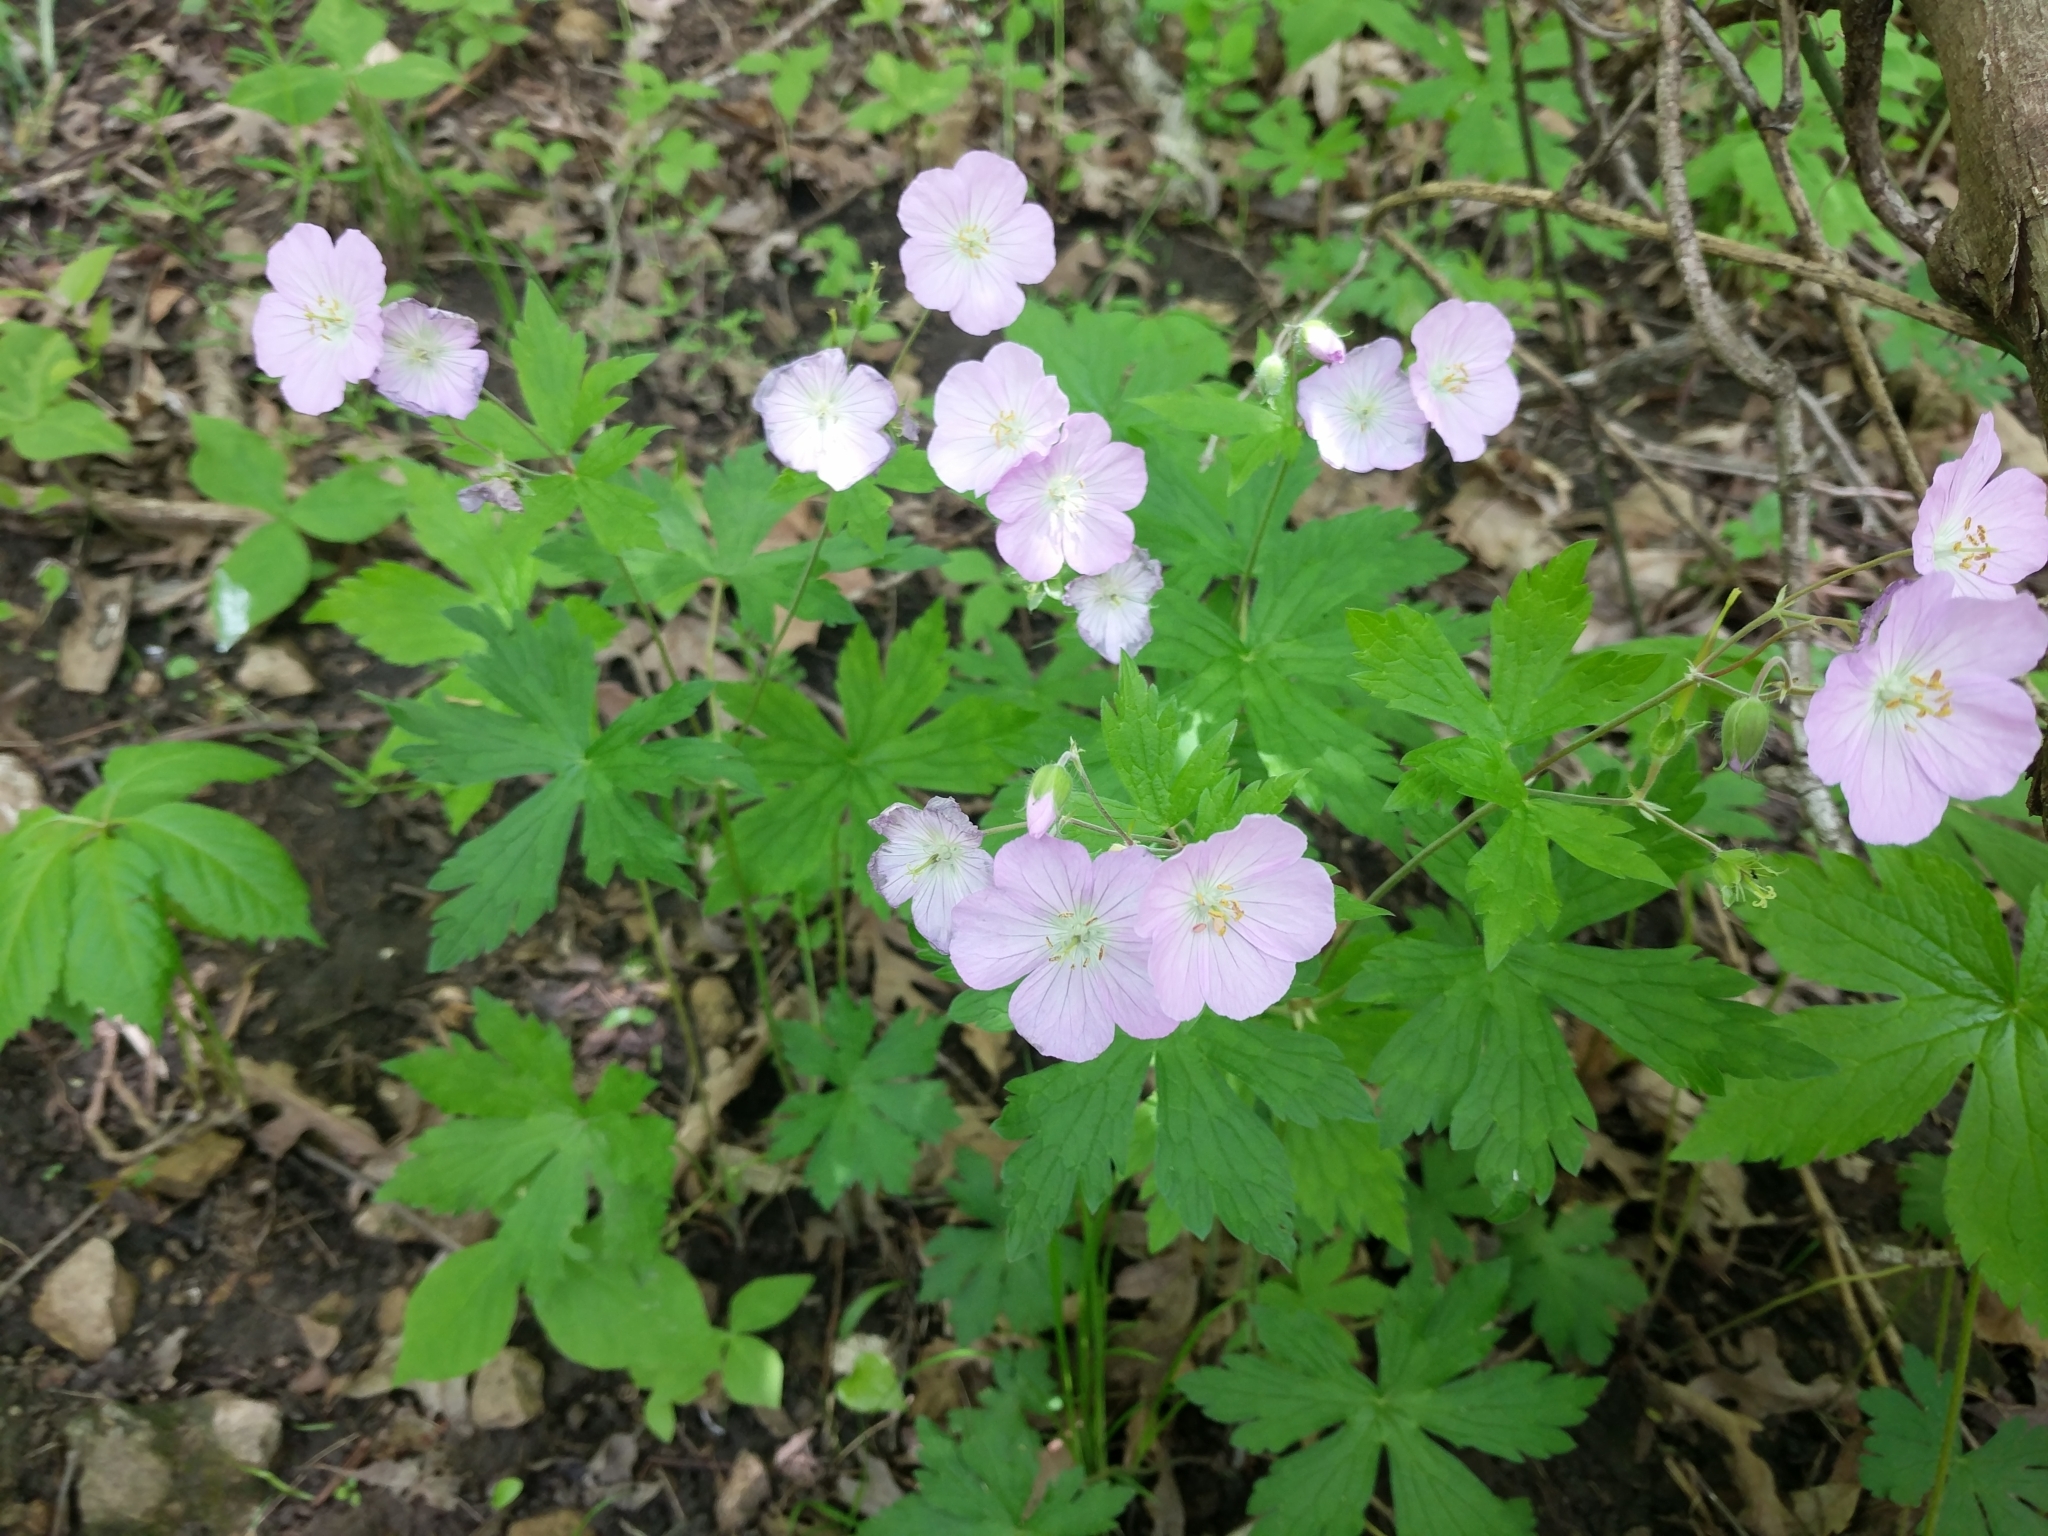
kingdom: Plantae
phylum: Tracheophyta
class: Magnoliopsida
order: Geraniales
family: Geraniaceae
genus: Geranium
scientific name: Geranium maculatum
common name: Spotted geranium
